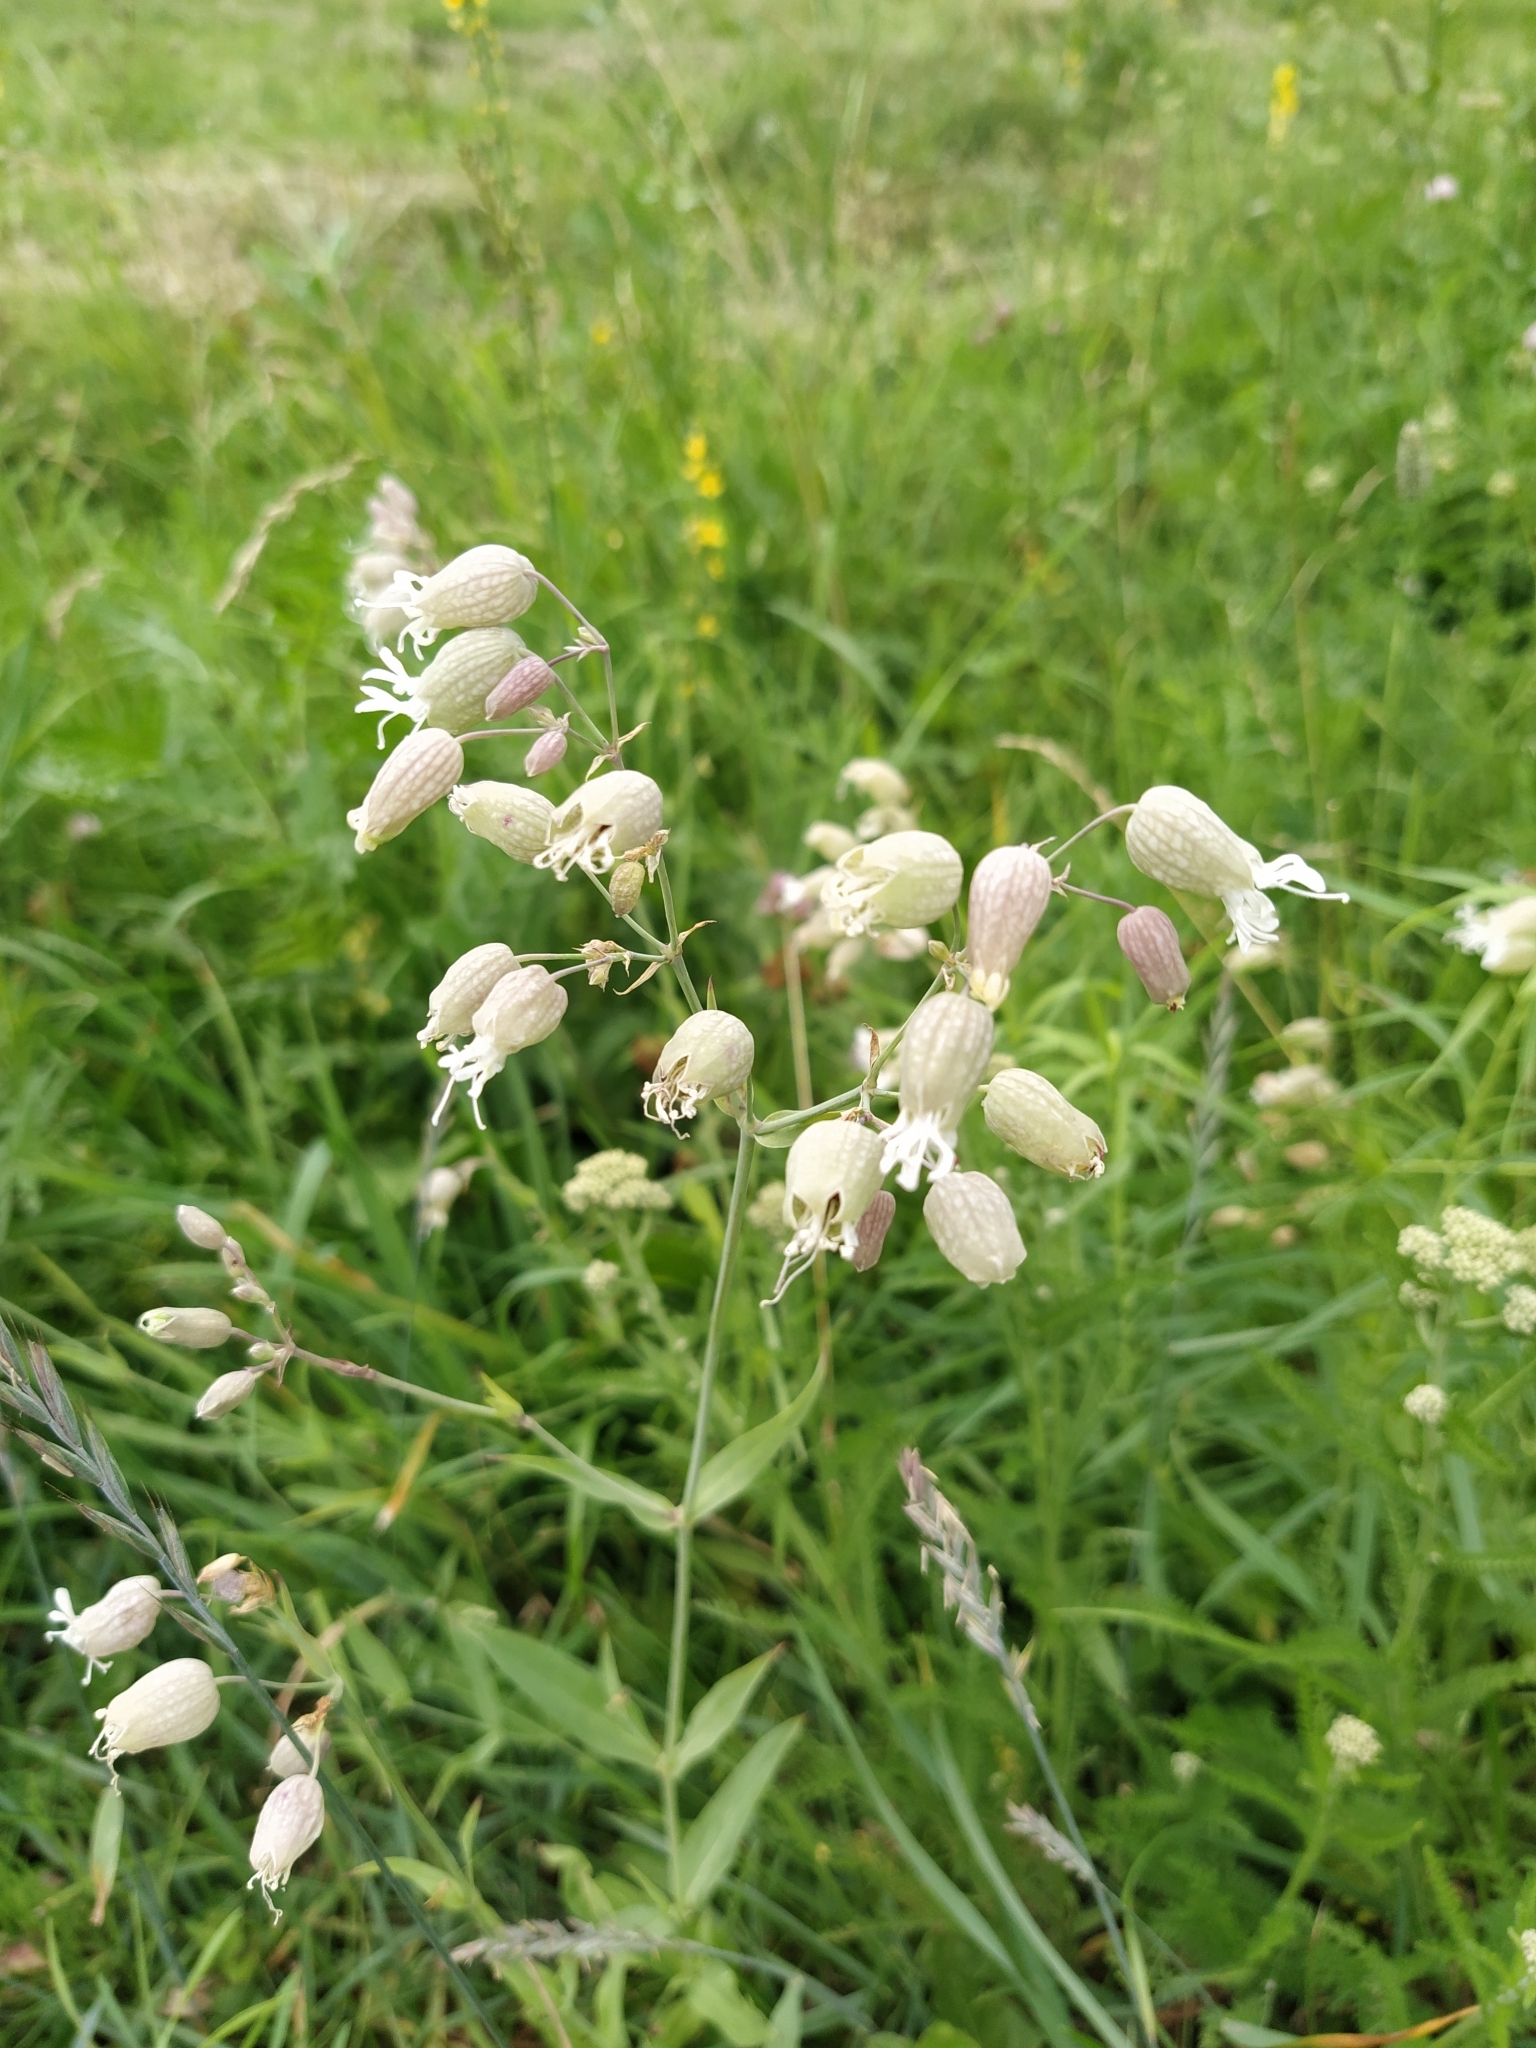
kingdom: Plantae
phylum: Tracheophyta
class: Magnoliopsida
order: Caryophyllales
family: Caryophyllaceae
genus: Silene
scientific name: Silene vulgaris
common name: Bladder campion
